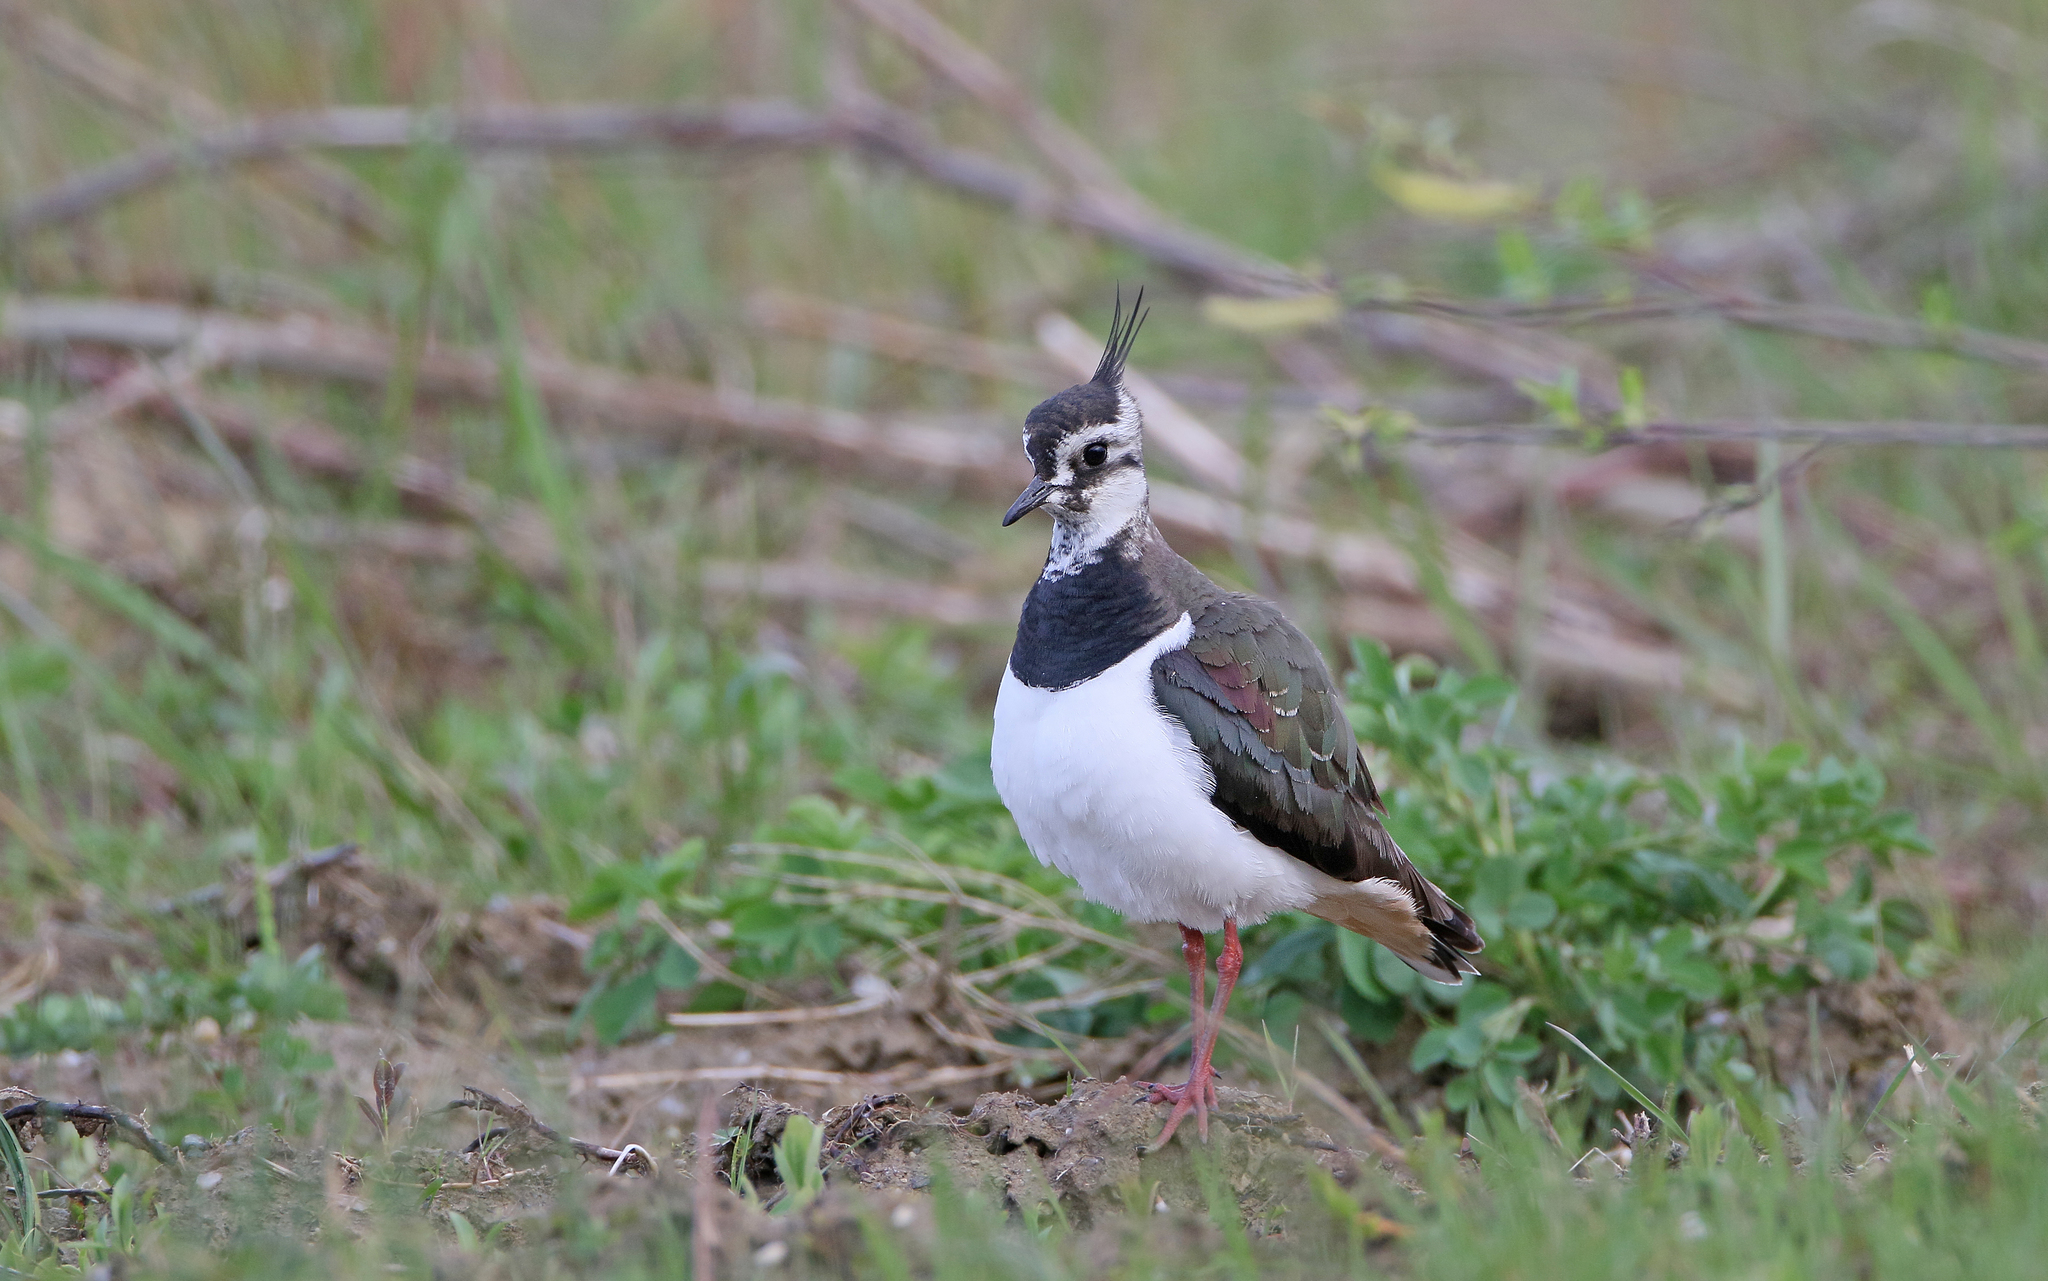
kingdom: Animalia
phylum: Chordata
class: Aves
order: Charadriiformes
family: Charadriidae
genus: Vanellus
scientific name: Vanellus vanellus
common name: Northern lapwing
